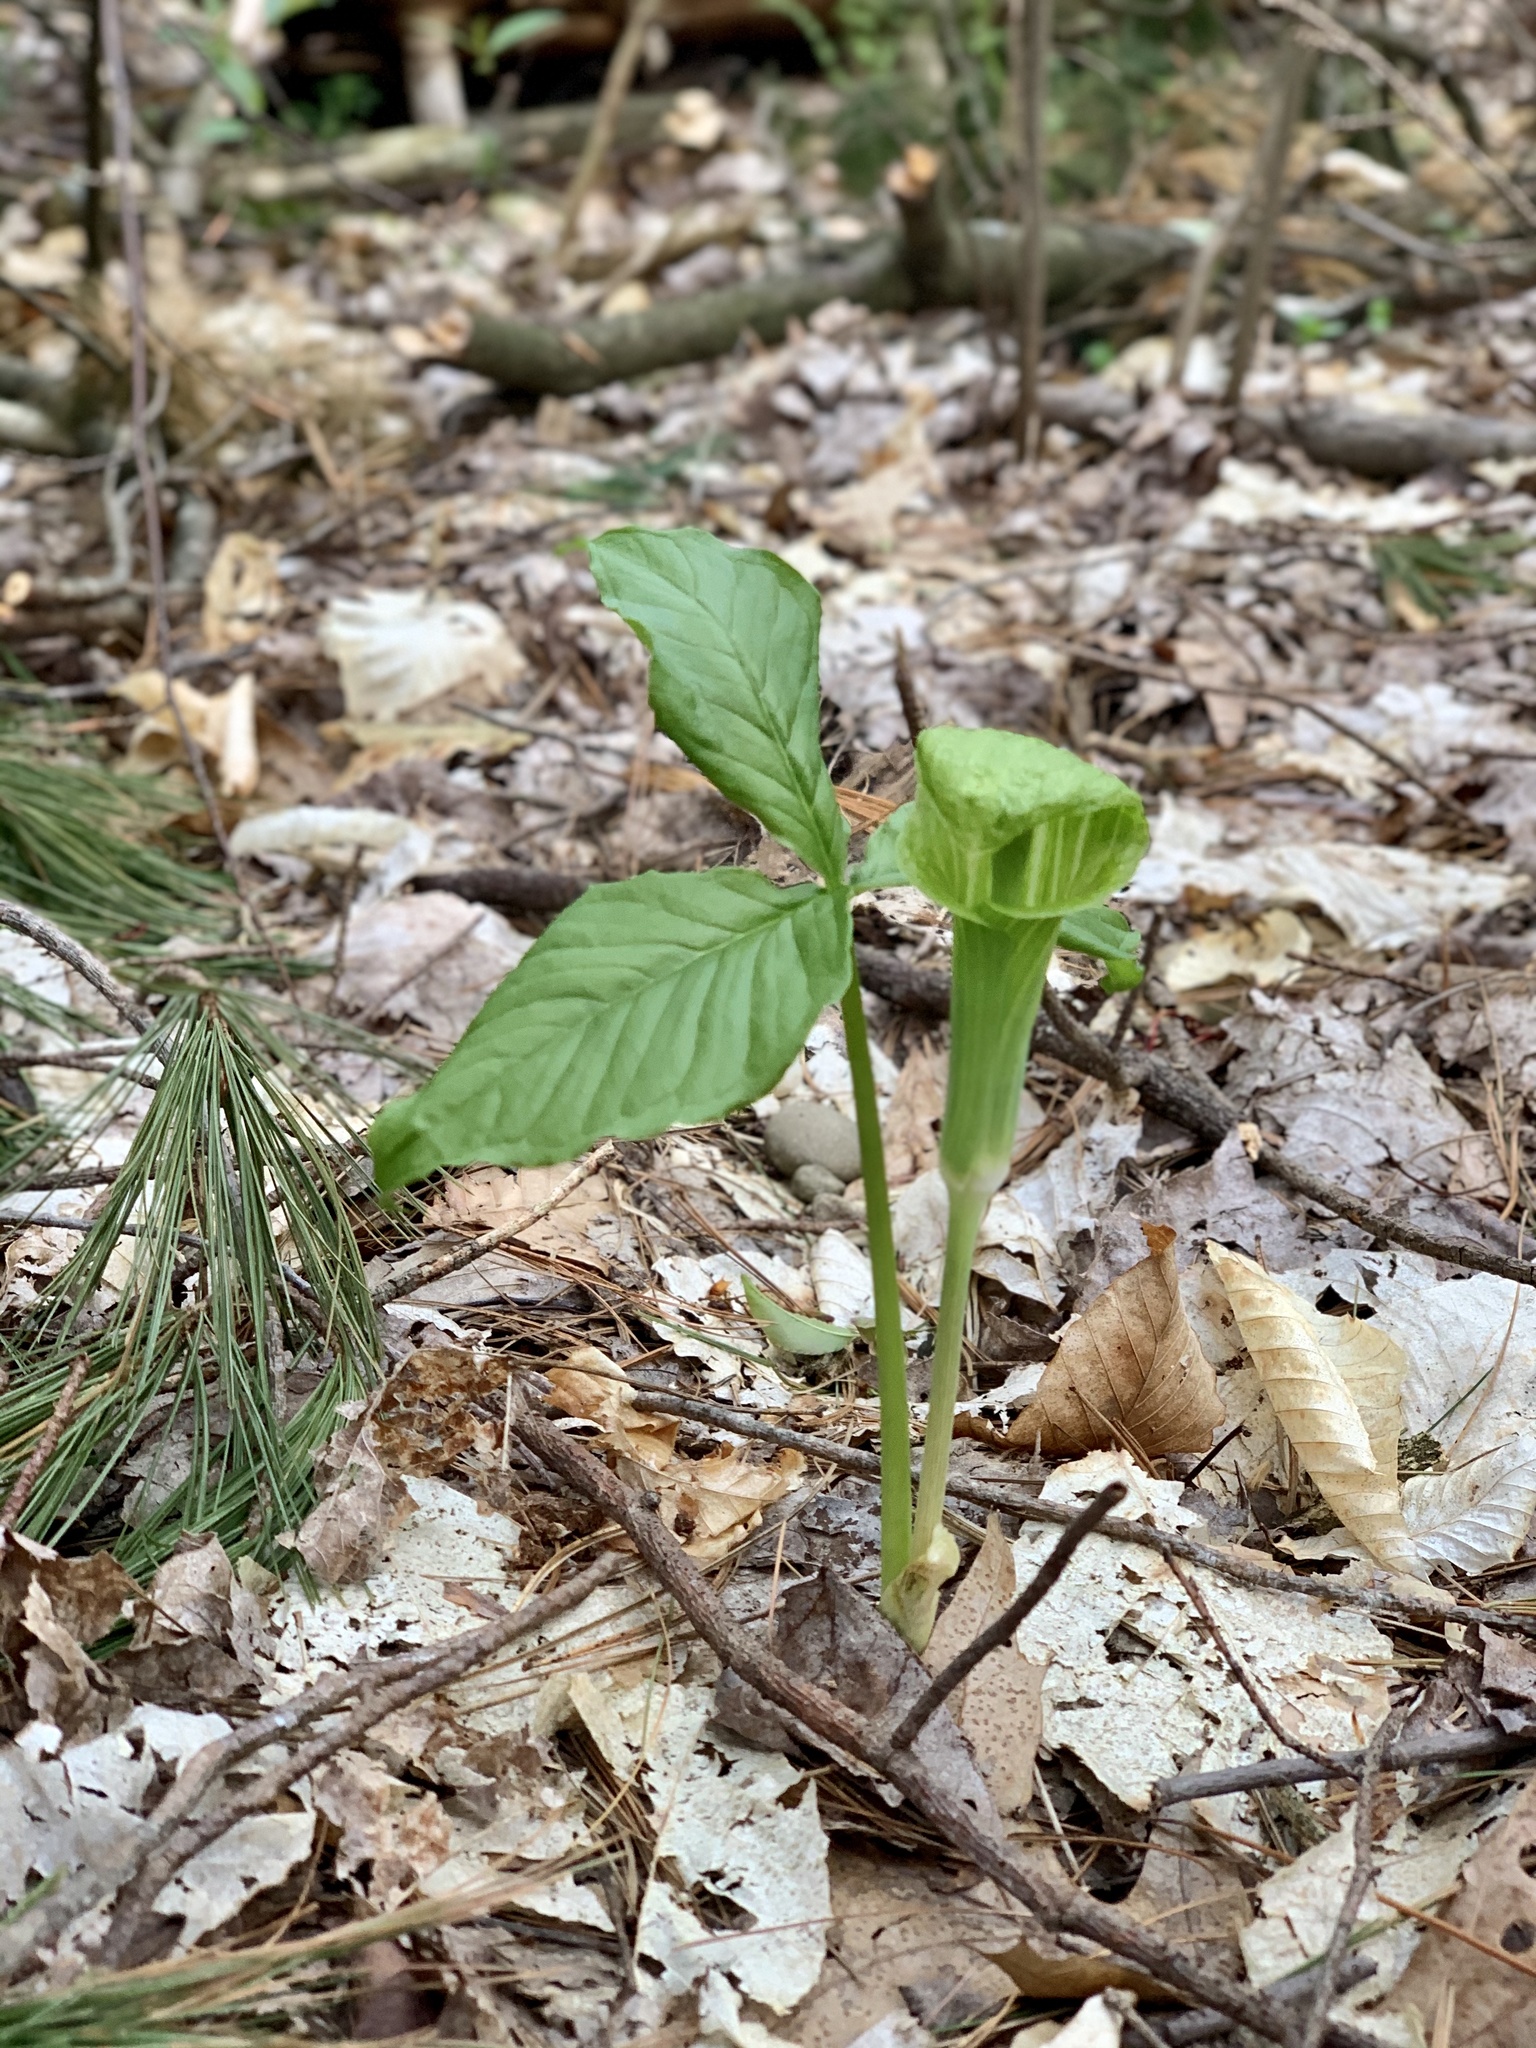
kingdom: Plantae
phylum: Tracheophyta
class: Liliopsida
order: Alismatales
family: Araceae
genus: Arisaema
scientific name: Arisaema triphyllum
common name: Jack-in-the-pulpit
